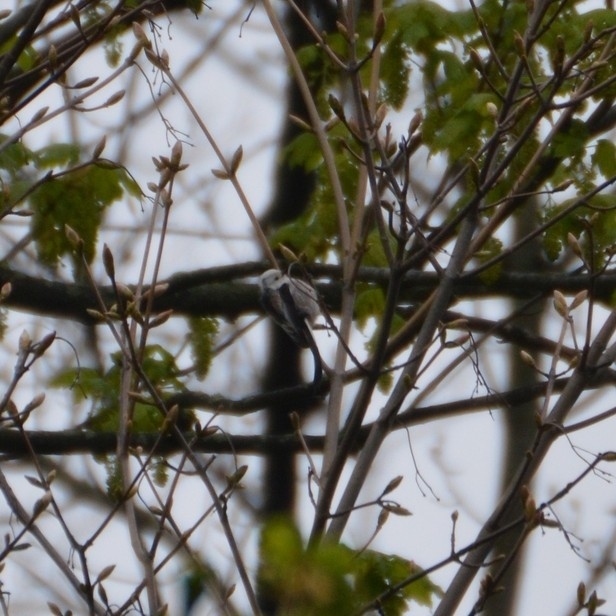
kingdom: Animalia
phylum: Chordata
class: Aves
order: Passeriformes
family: Aegithalidae
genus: Aegithalos
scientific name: Aegithalos caudatus
